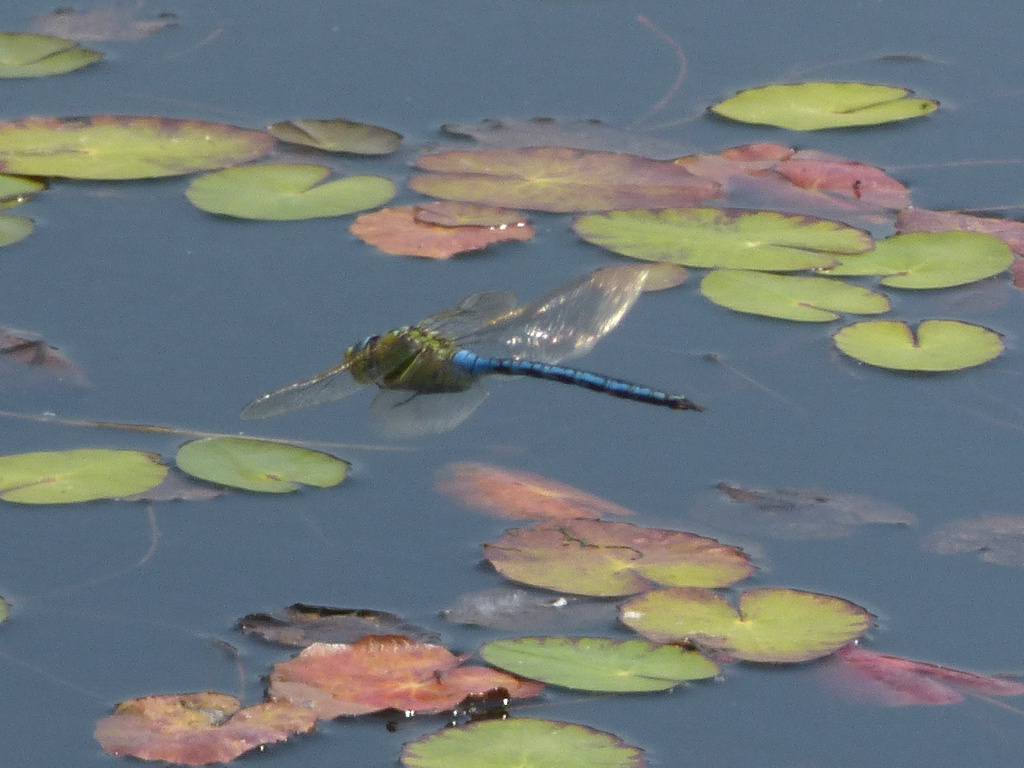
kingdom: Animalia
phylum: Arthropoda
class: Insecta
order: Odonata
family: Aeshnidae
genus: Anax
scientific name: Anax imperator
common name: Emperor dragonfly
